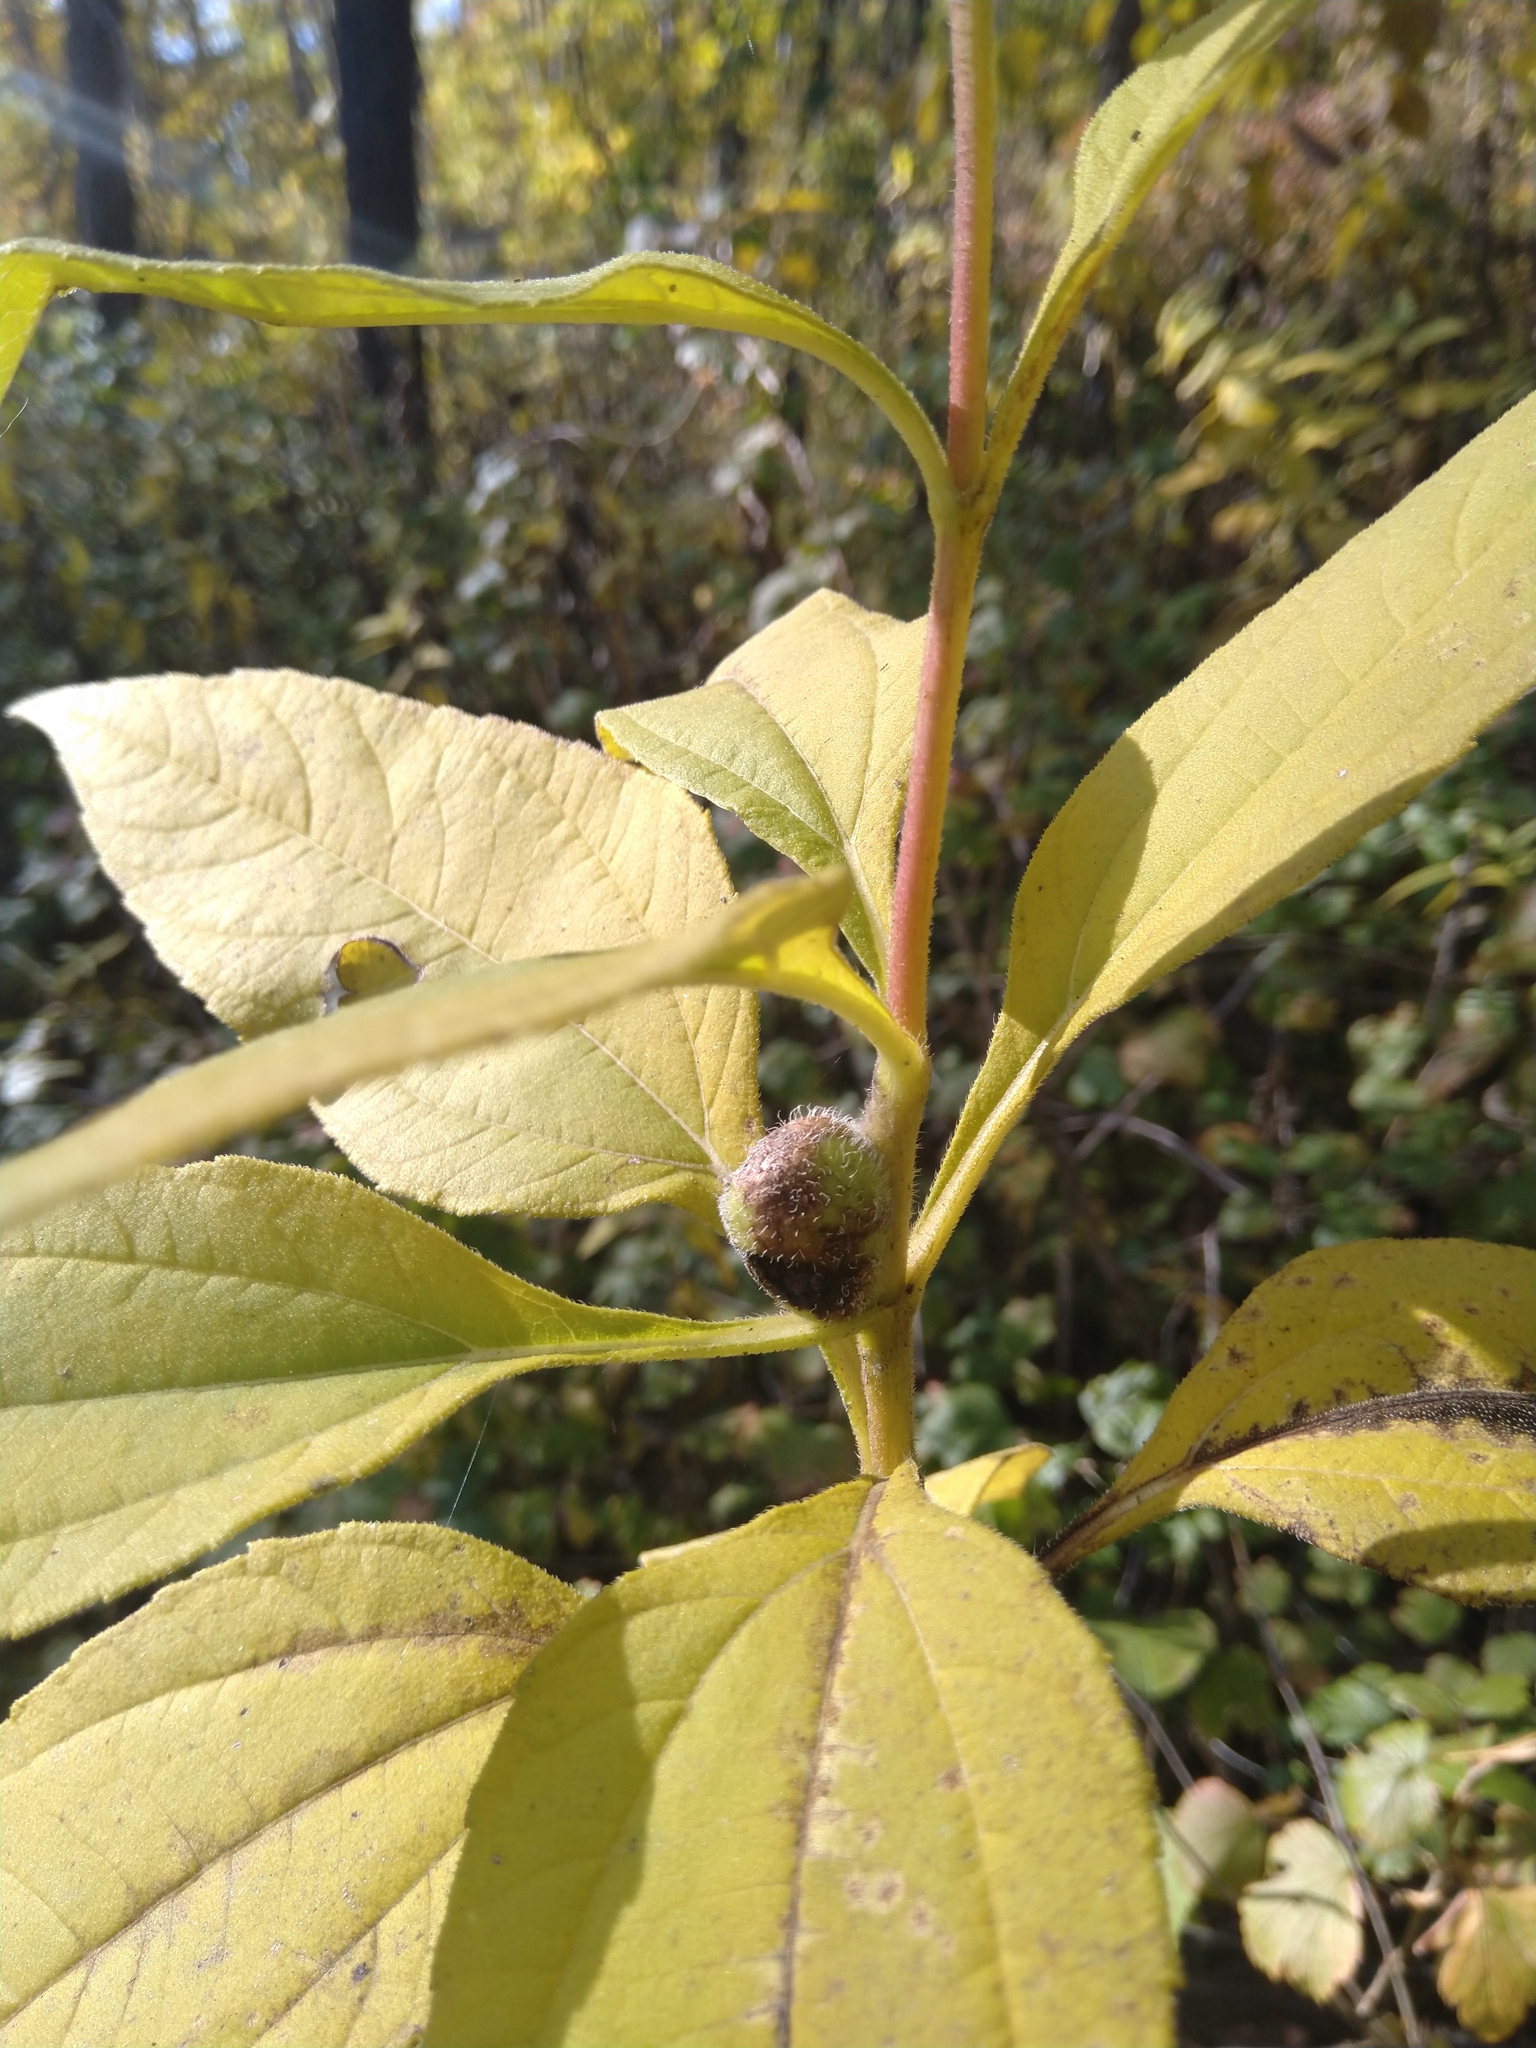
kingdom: Animalia
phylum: Arthropoda
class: Insecta
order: Diptera
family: Cecidomyiidae
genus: Asphondylia
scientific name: Asphondylia helianthiglobulus
